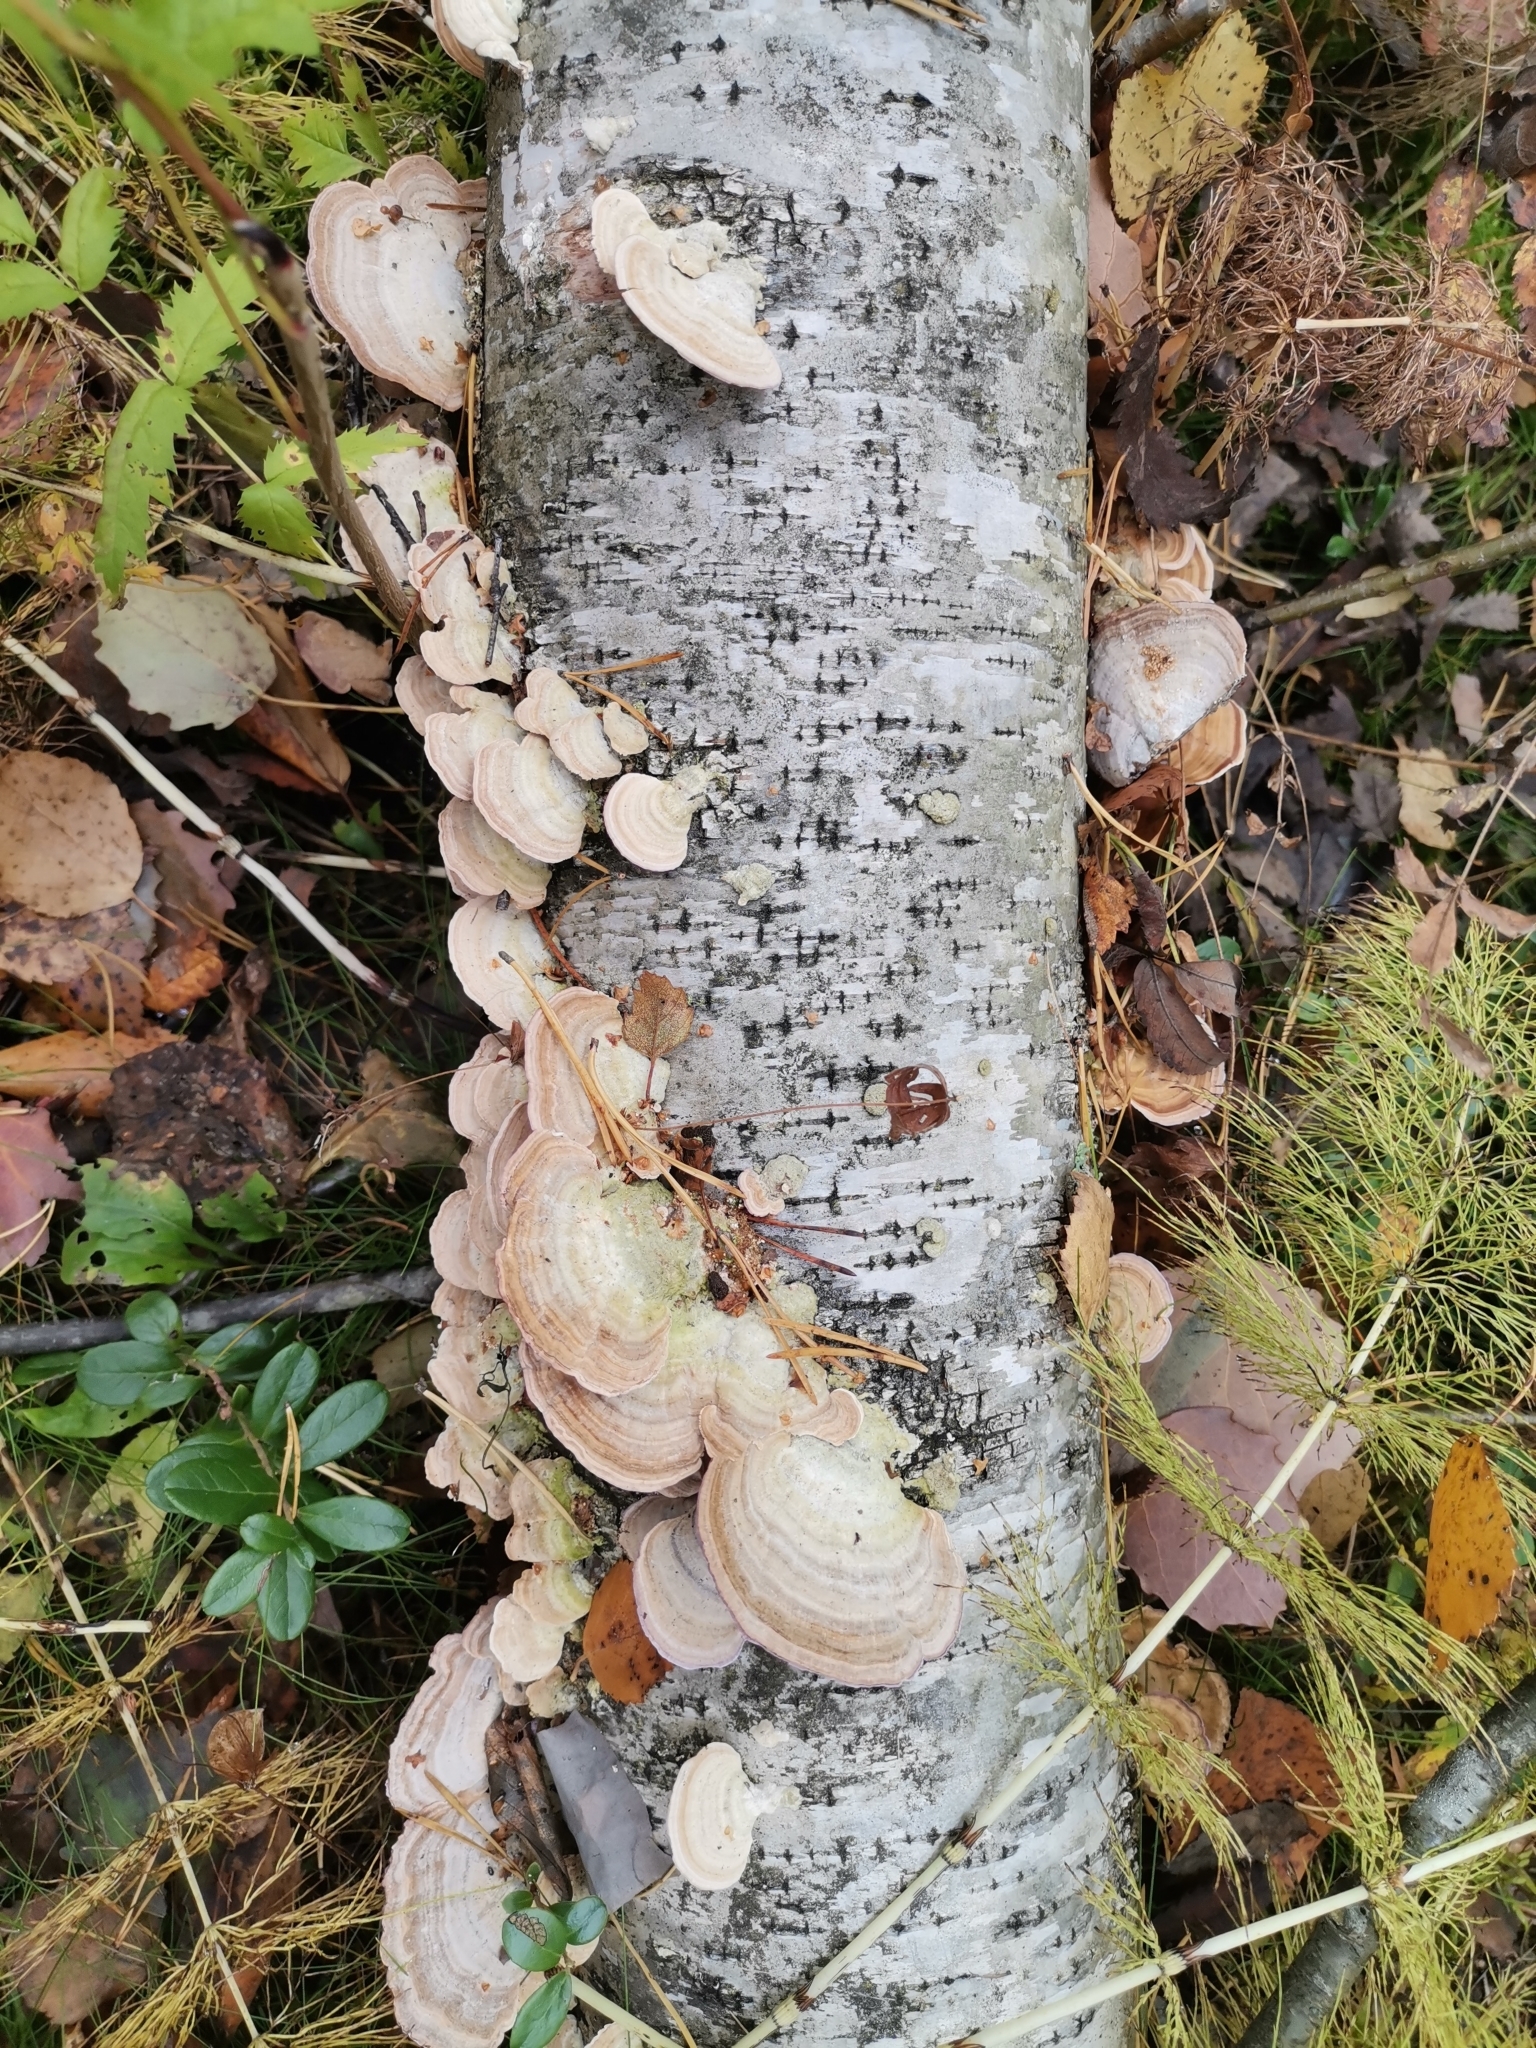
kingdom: Fungi
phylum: Basidiomycota
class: Agaricomycetes
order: Hymenochaetales
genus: Trichaptum
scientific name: Trichaptum biforme
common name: Violet-toothed polypore
